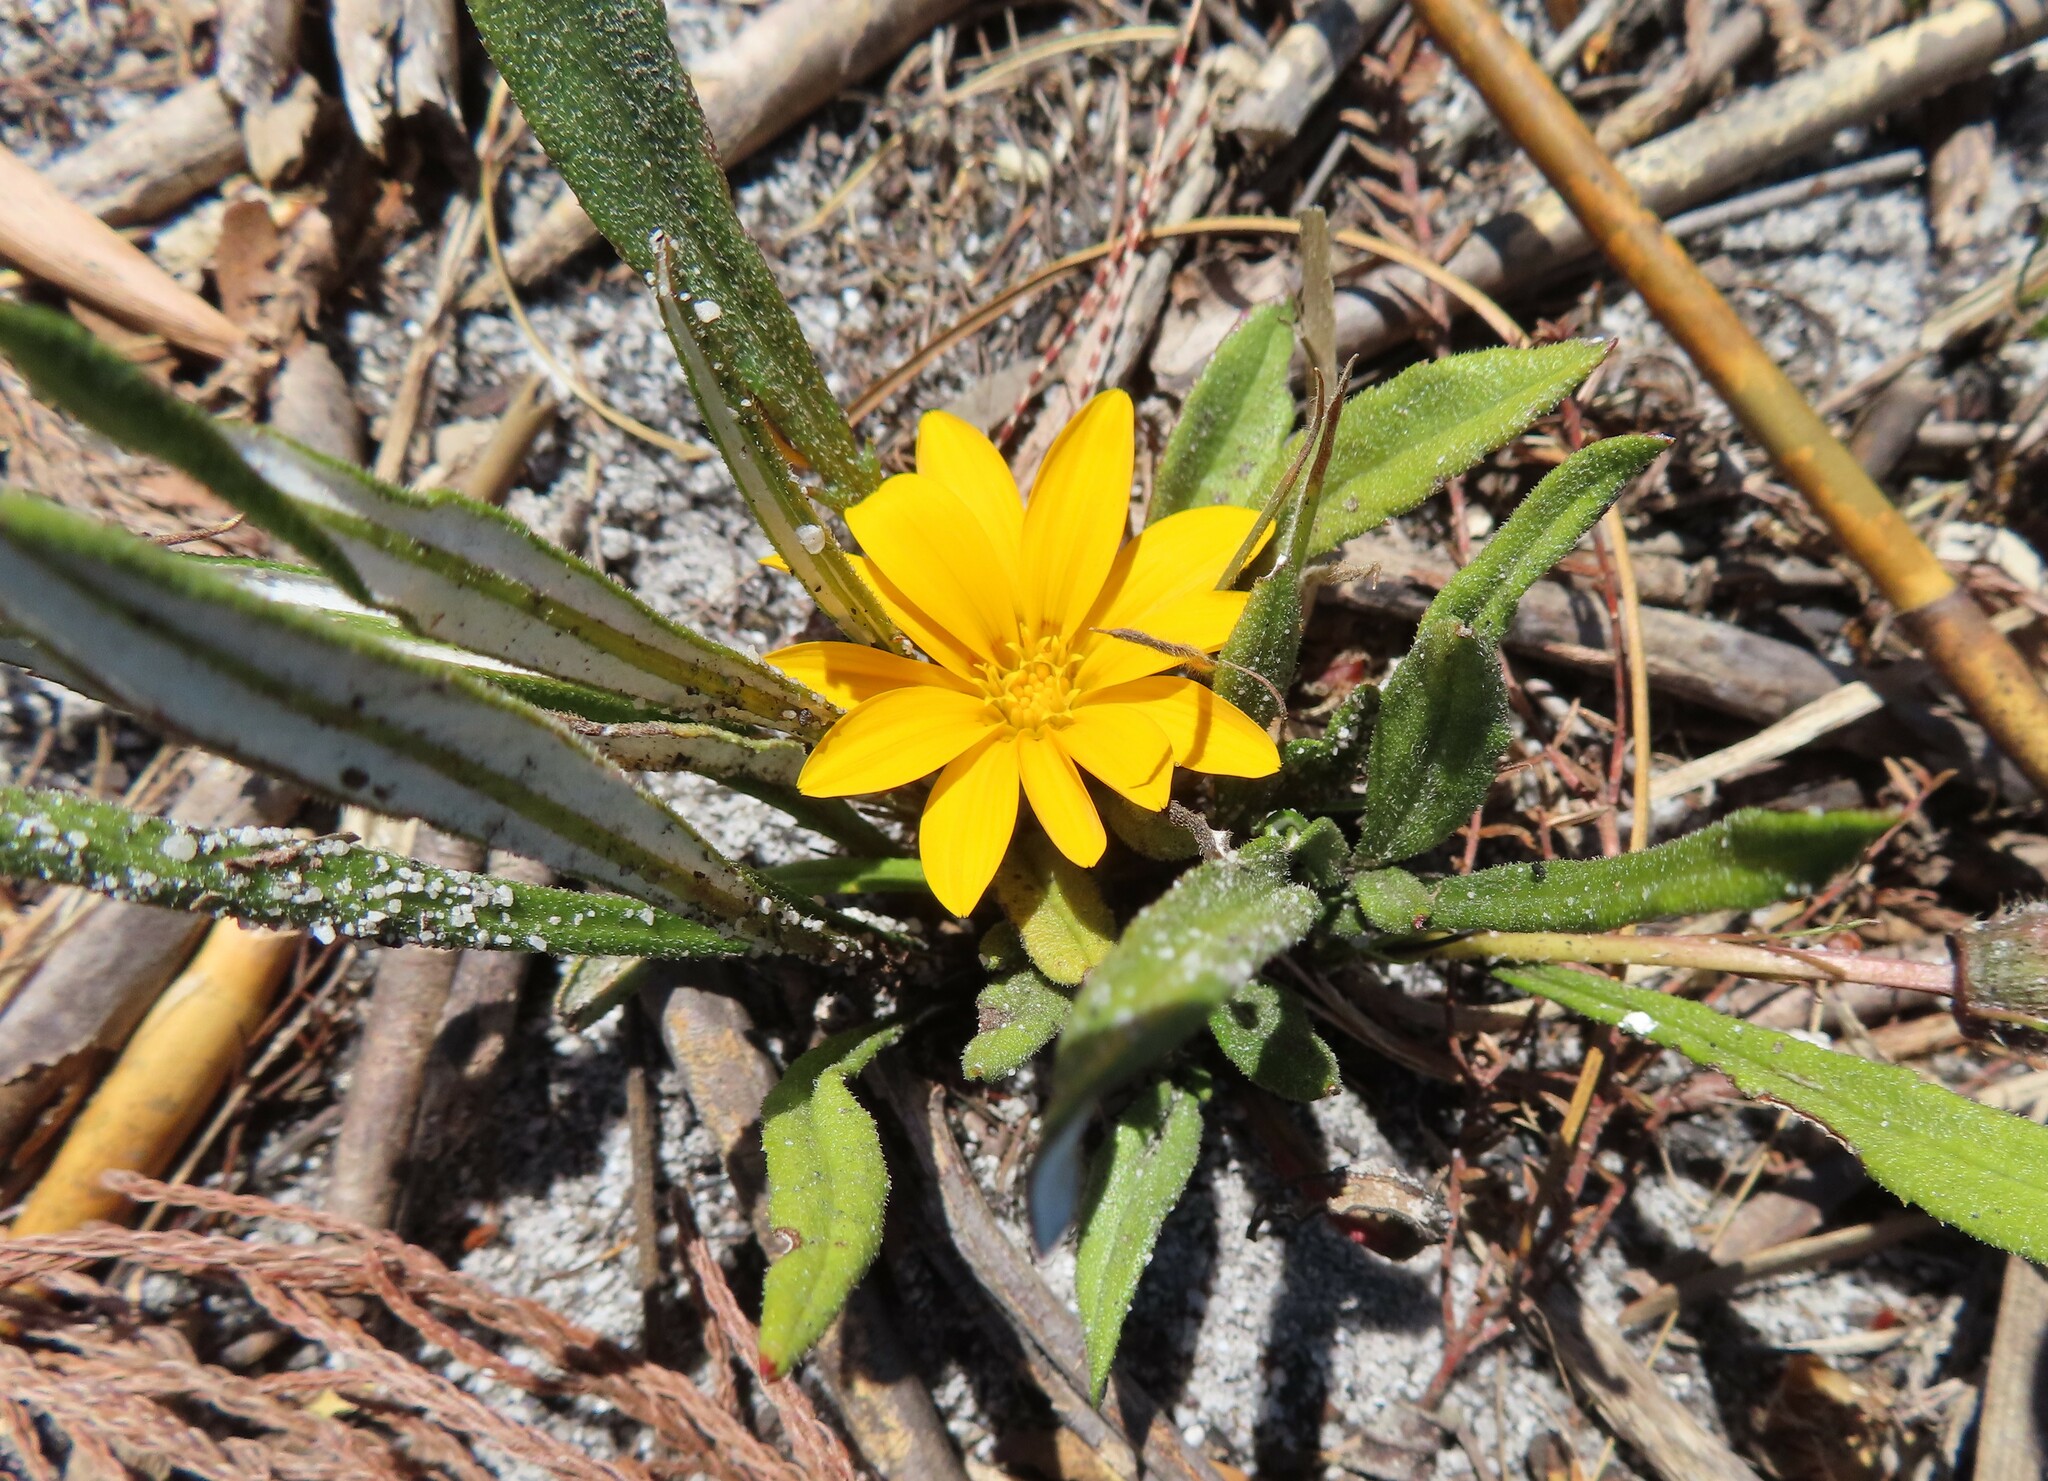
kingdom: Plantae
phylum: Tracheophyta
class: Magnoliopsida
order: Asterales
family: Asteraceae
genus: Gazania
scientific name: Gazania serrata
